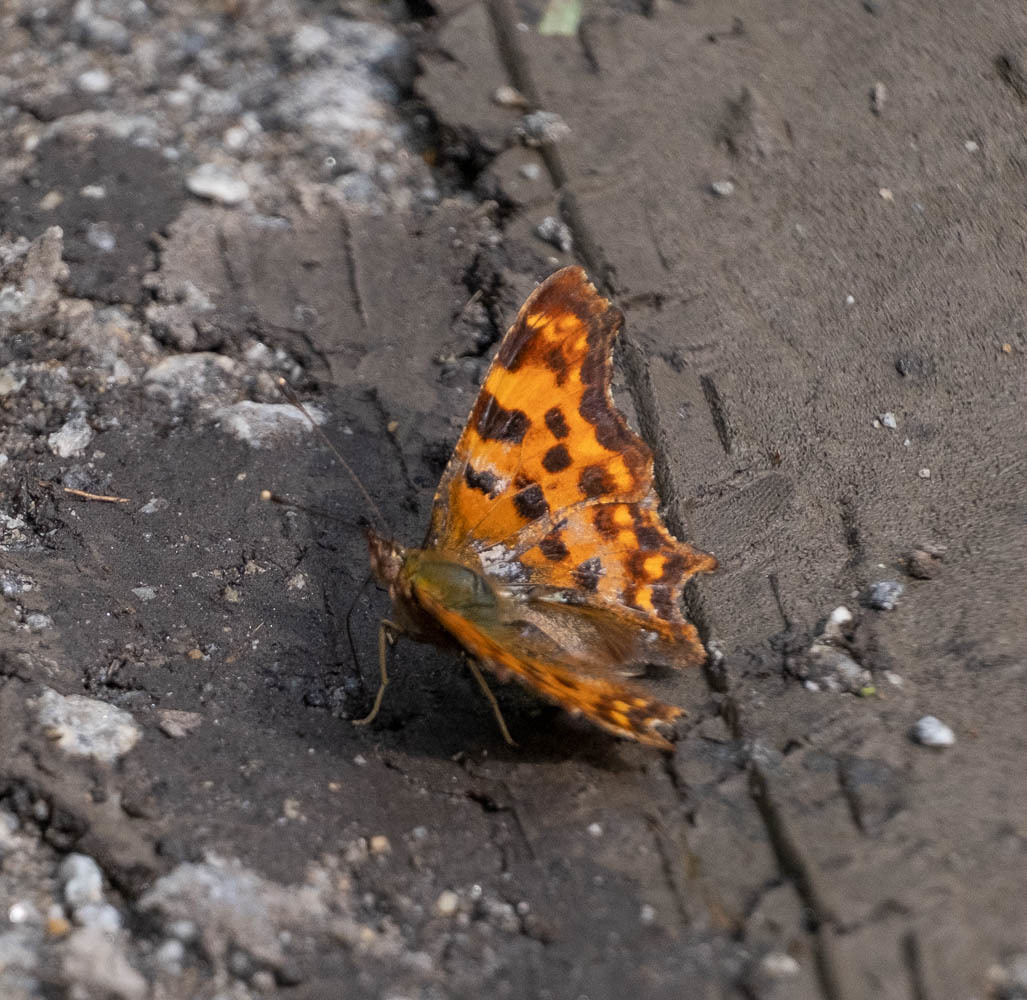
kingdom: Animalia
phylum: Arthropoda
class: Insecta
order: Lepidoptera
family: Nymphalidae
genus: Polygonia
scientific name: Polygonia c-album
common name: Comma
